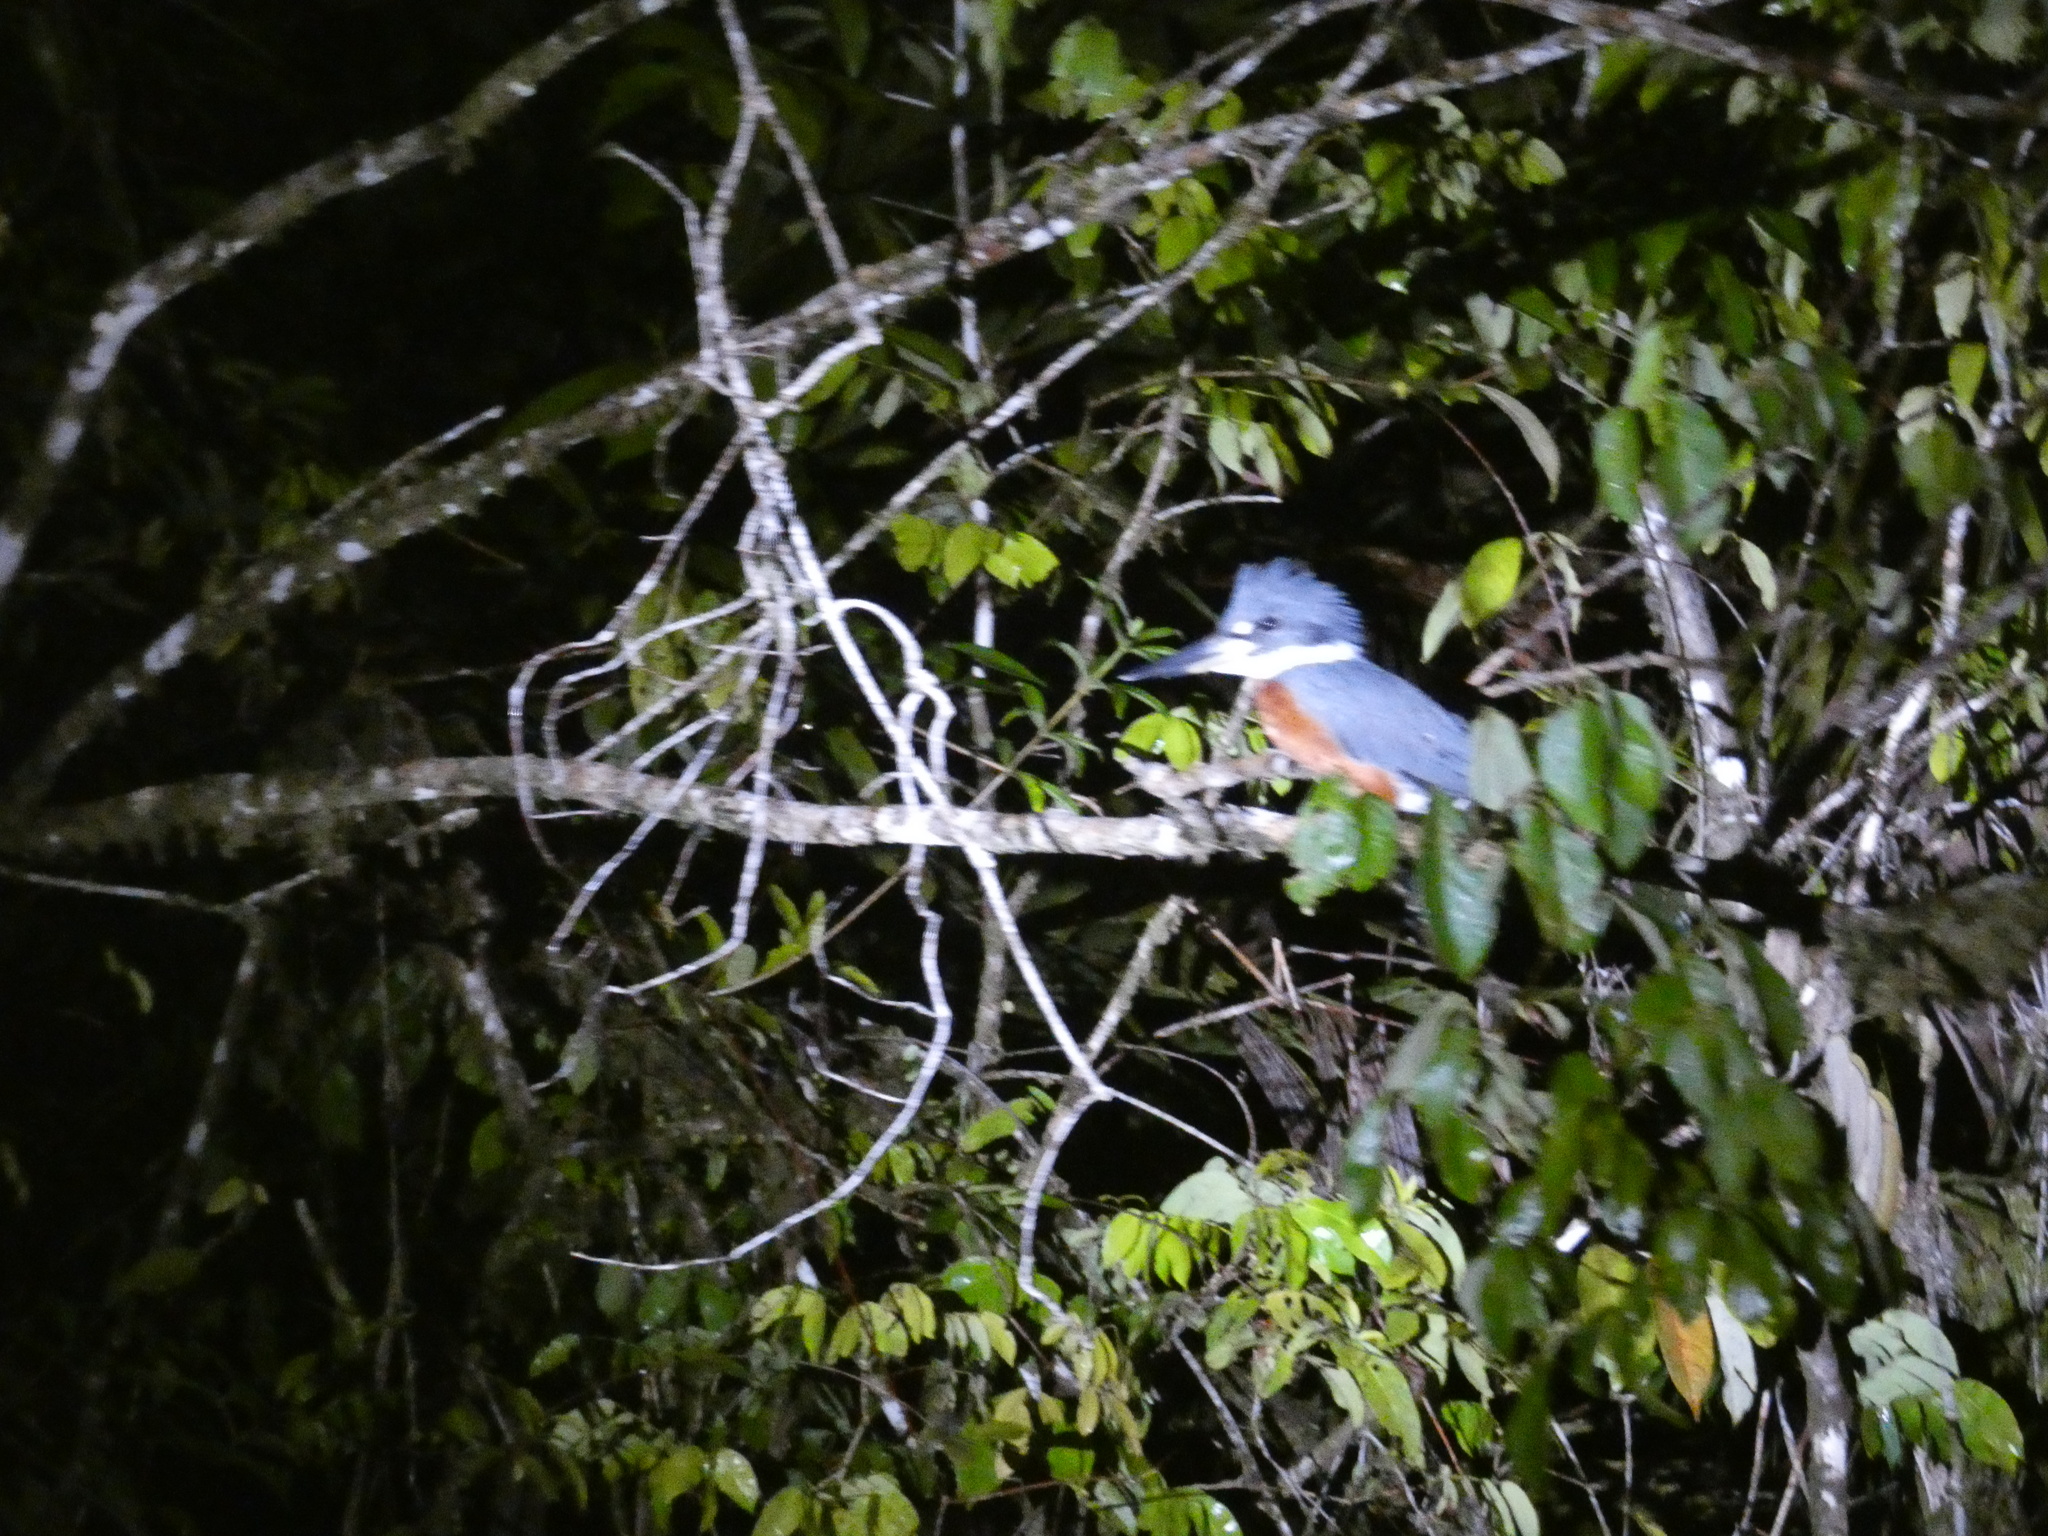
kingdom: Animalia
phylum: Chordata
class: Aves
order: Coraciiformes
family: Alcedinidae
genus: Megaceryle
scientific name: Megaceryle torquata
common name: Ringed kingfisher
